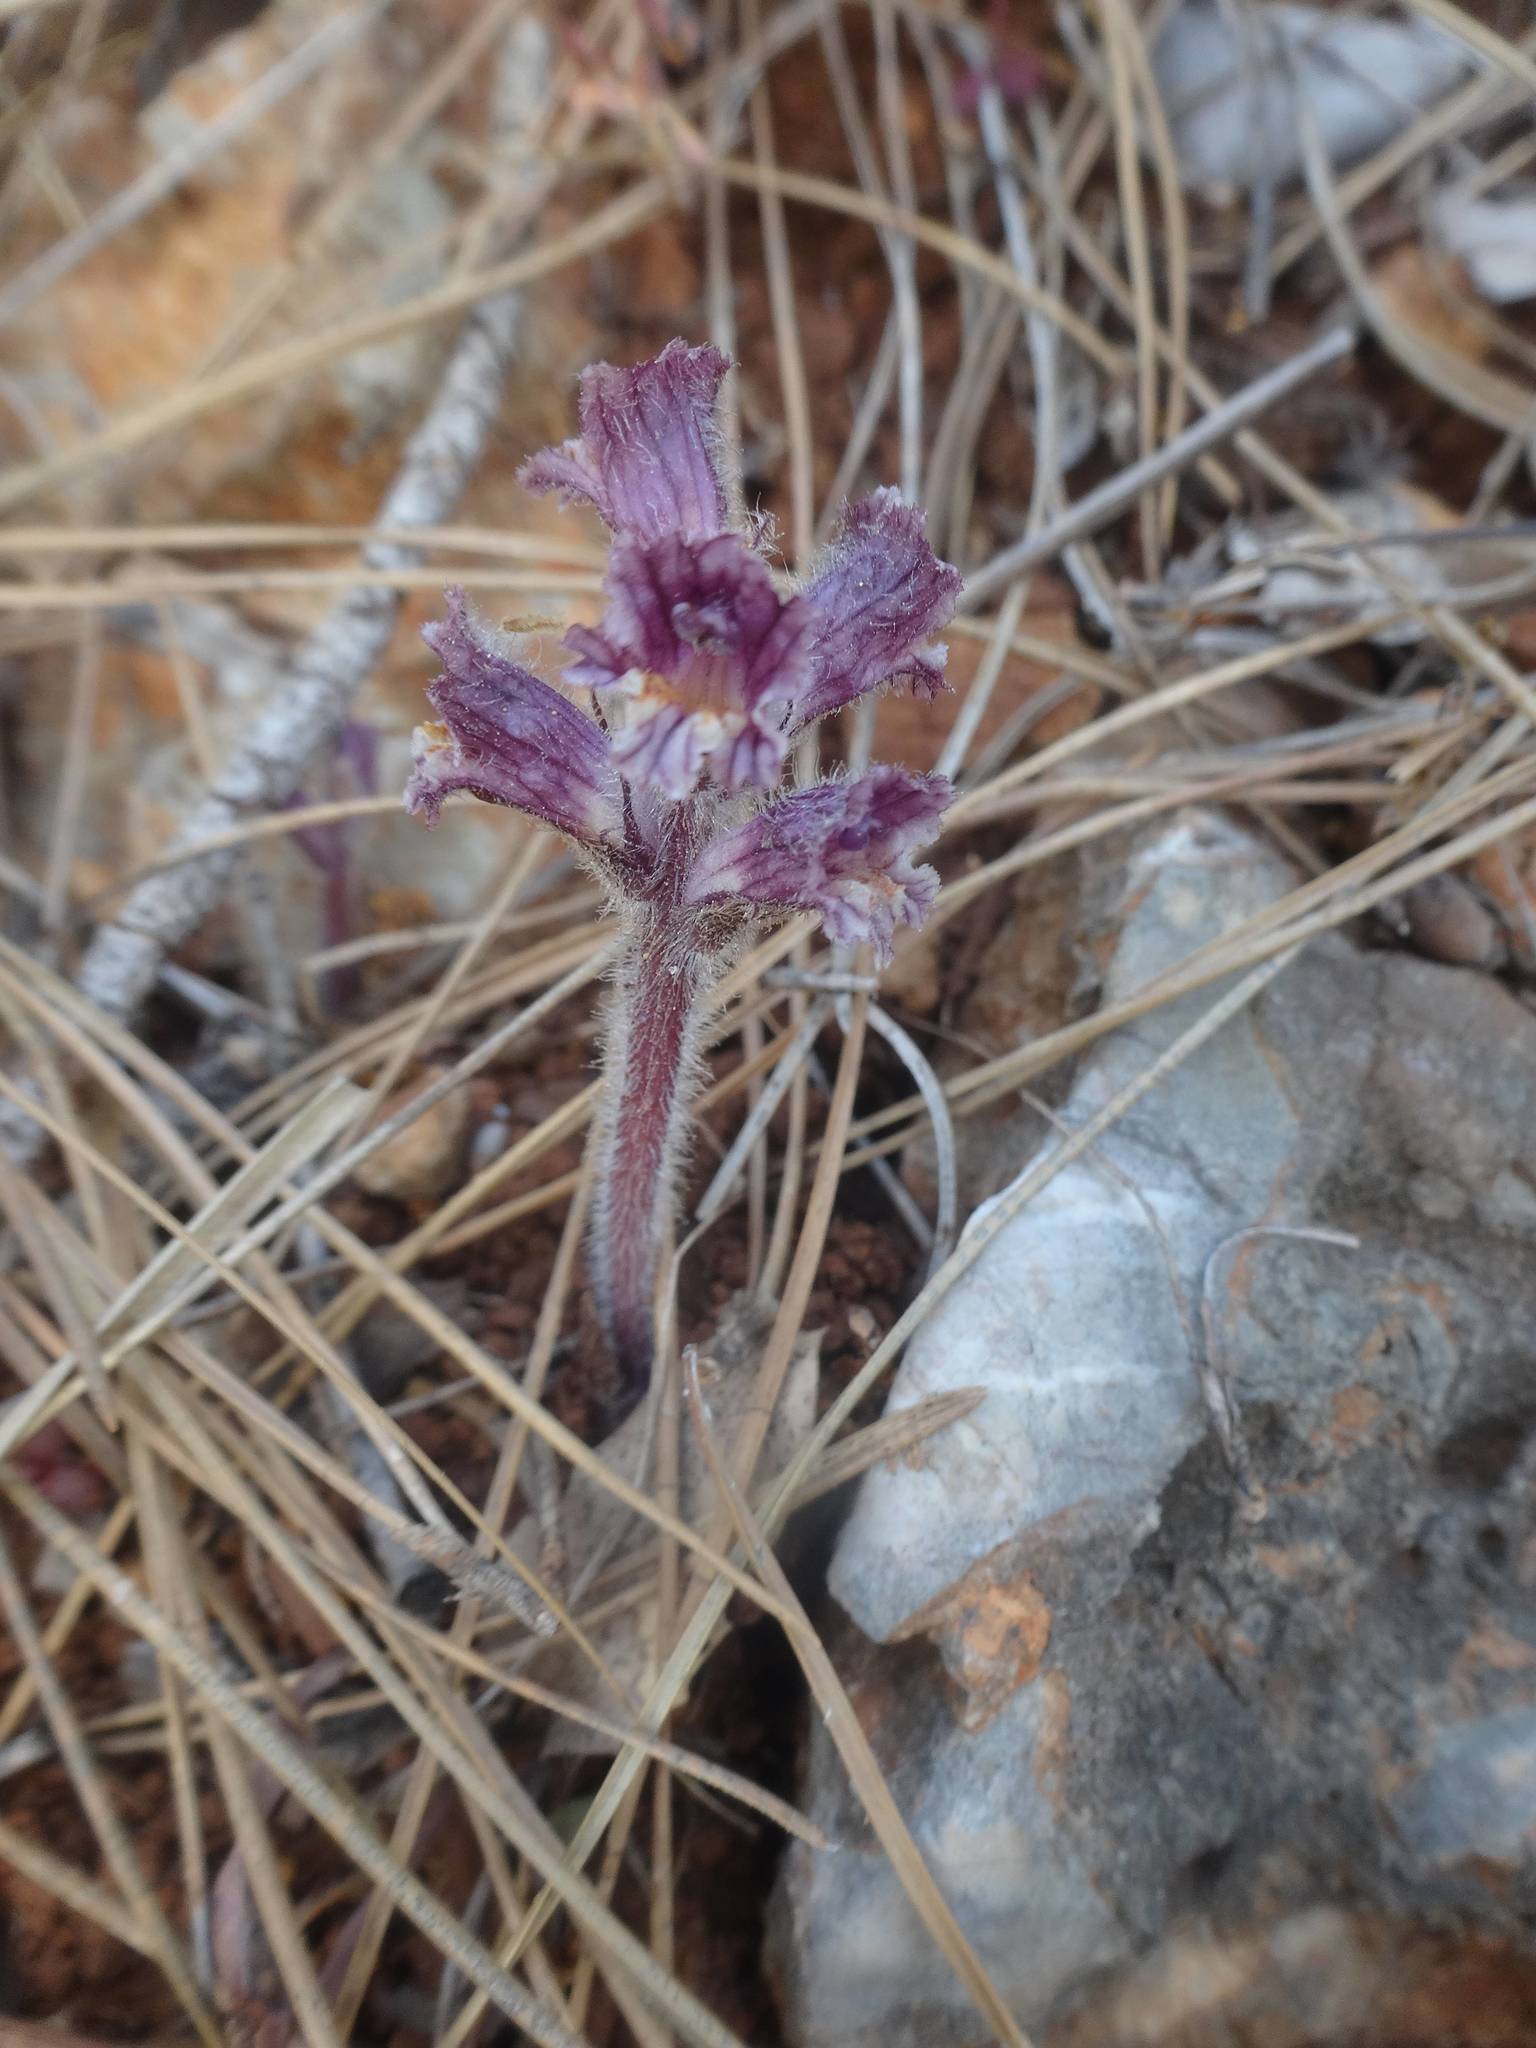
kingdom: Plantae
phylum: Tracheophyta
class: Magnoliopsida
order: Lamiales
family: Orobanchaceae
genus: Orobanche
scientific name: Orobanche pubescens
